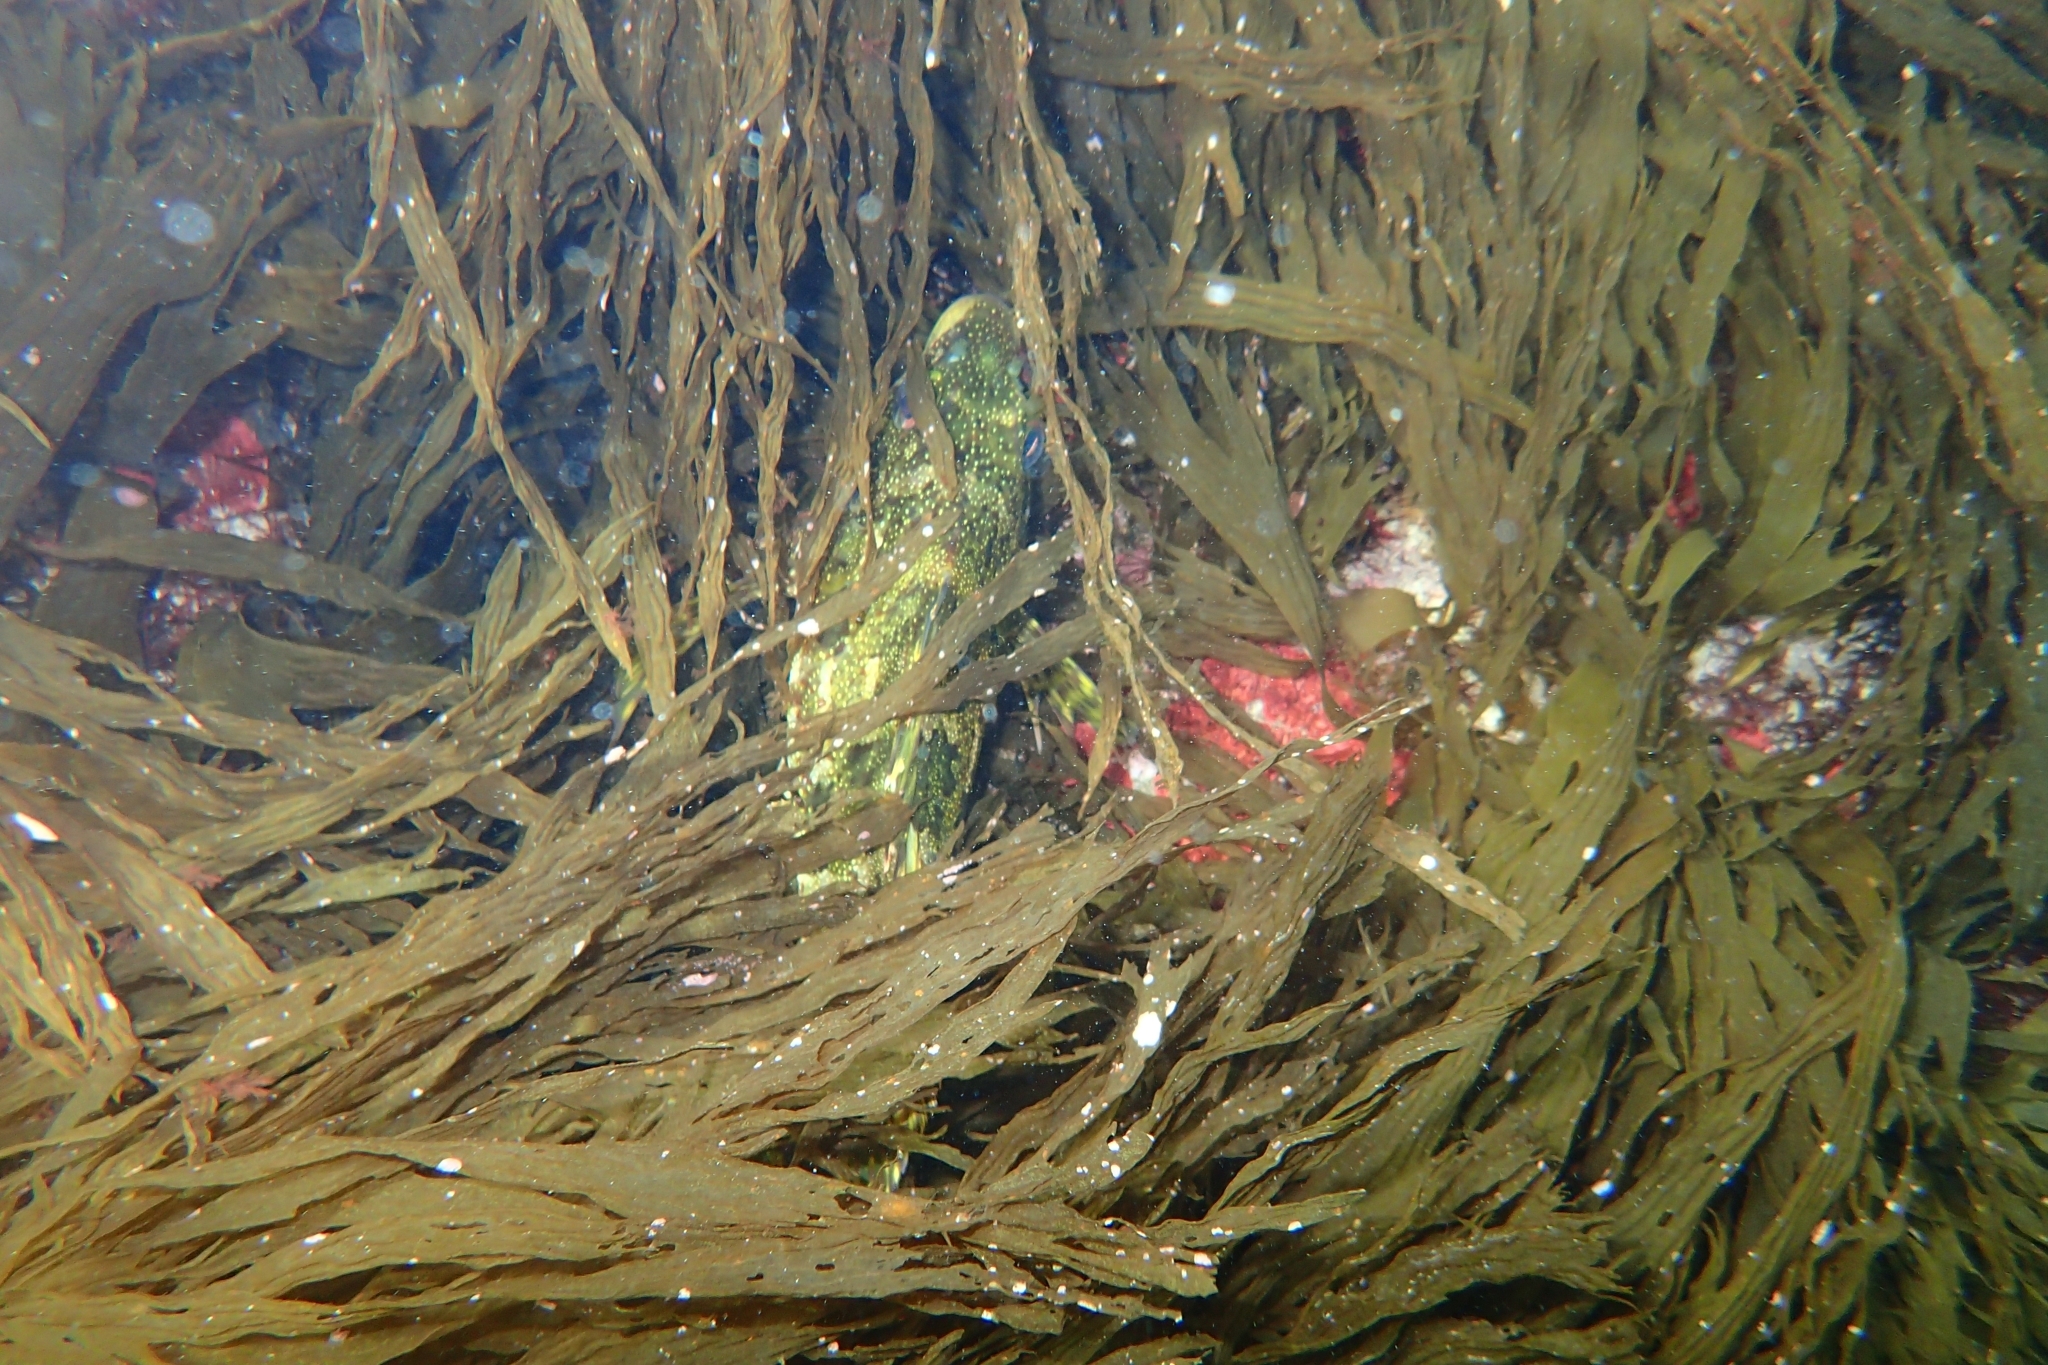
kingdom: Animalia
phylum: Chordata
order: Perciformes
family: Chironemidae
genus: Chironemus
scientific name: Chironemus marmoratus
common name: Kelpfish
